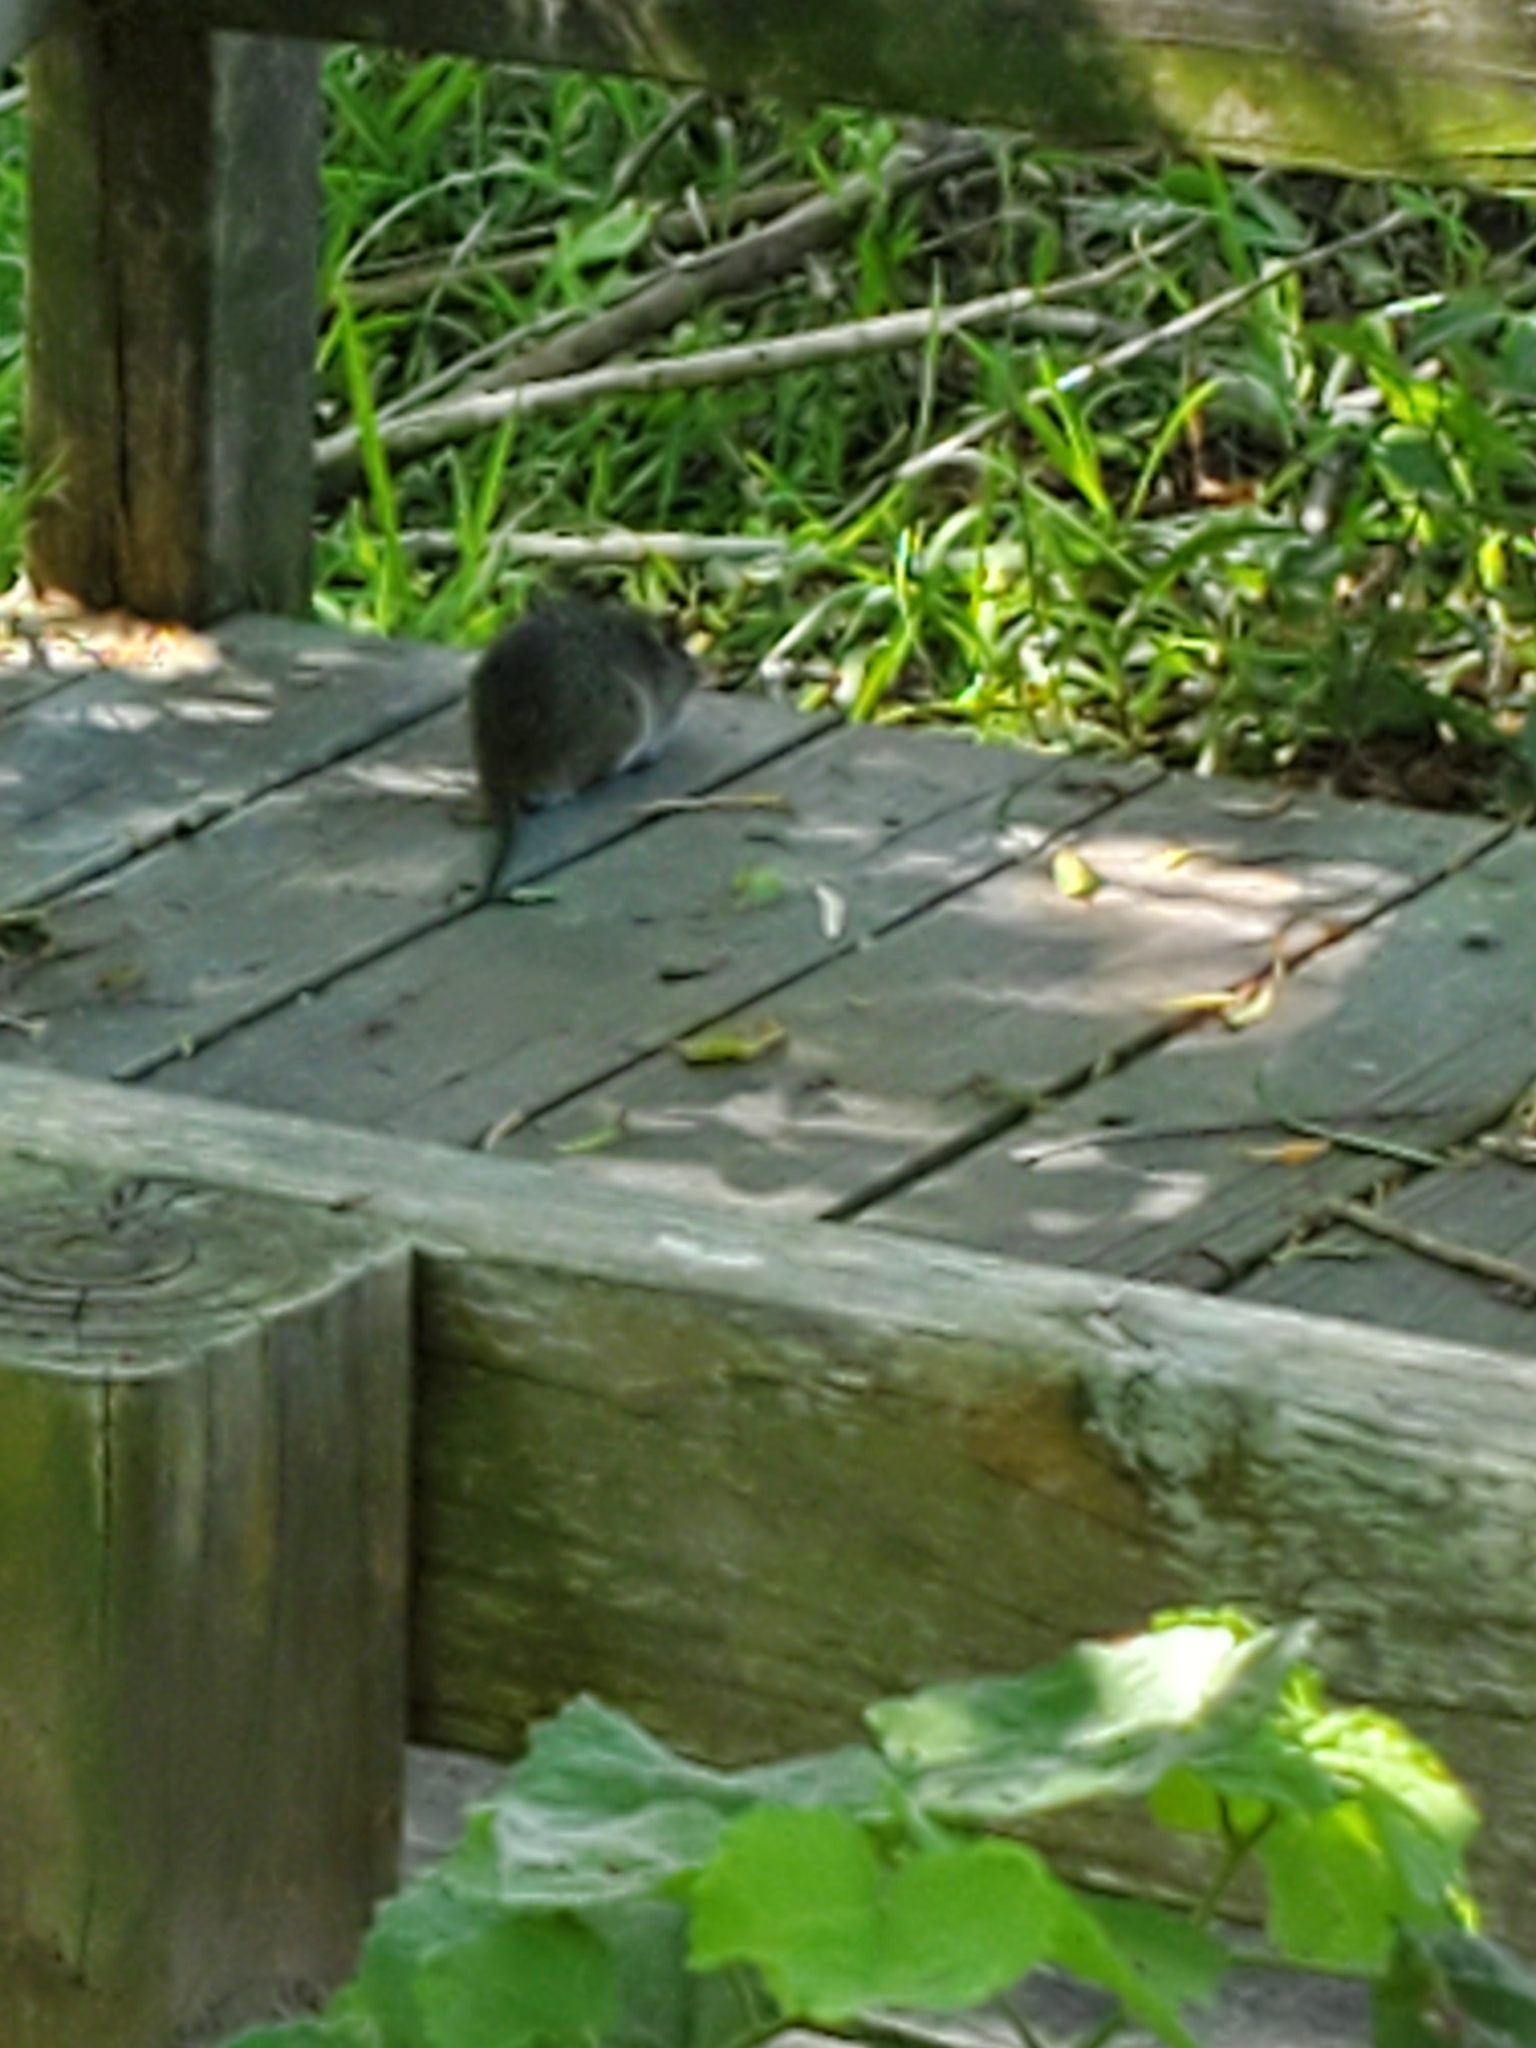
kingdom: Animalia
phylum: Chordata
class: Mammalia
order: Rodentia
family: Cricetidae
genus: Sigmodon
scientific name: Sigmodon hispidus
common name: Hispid cotton rat
